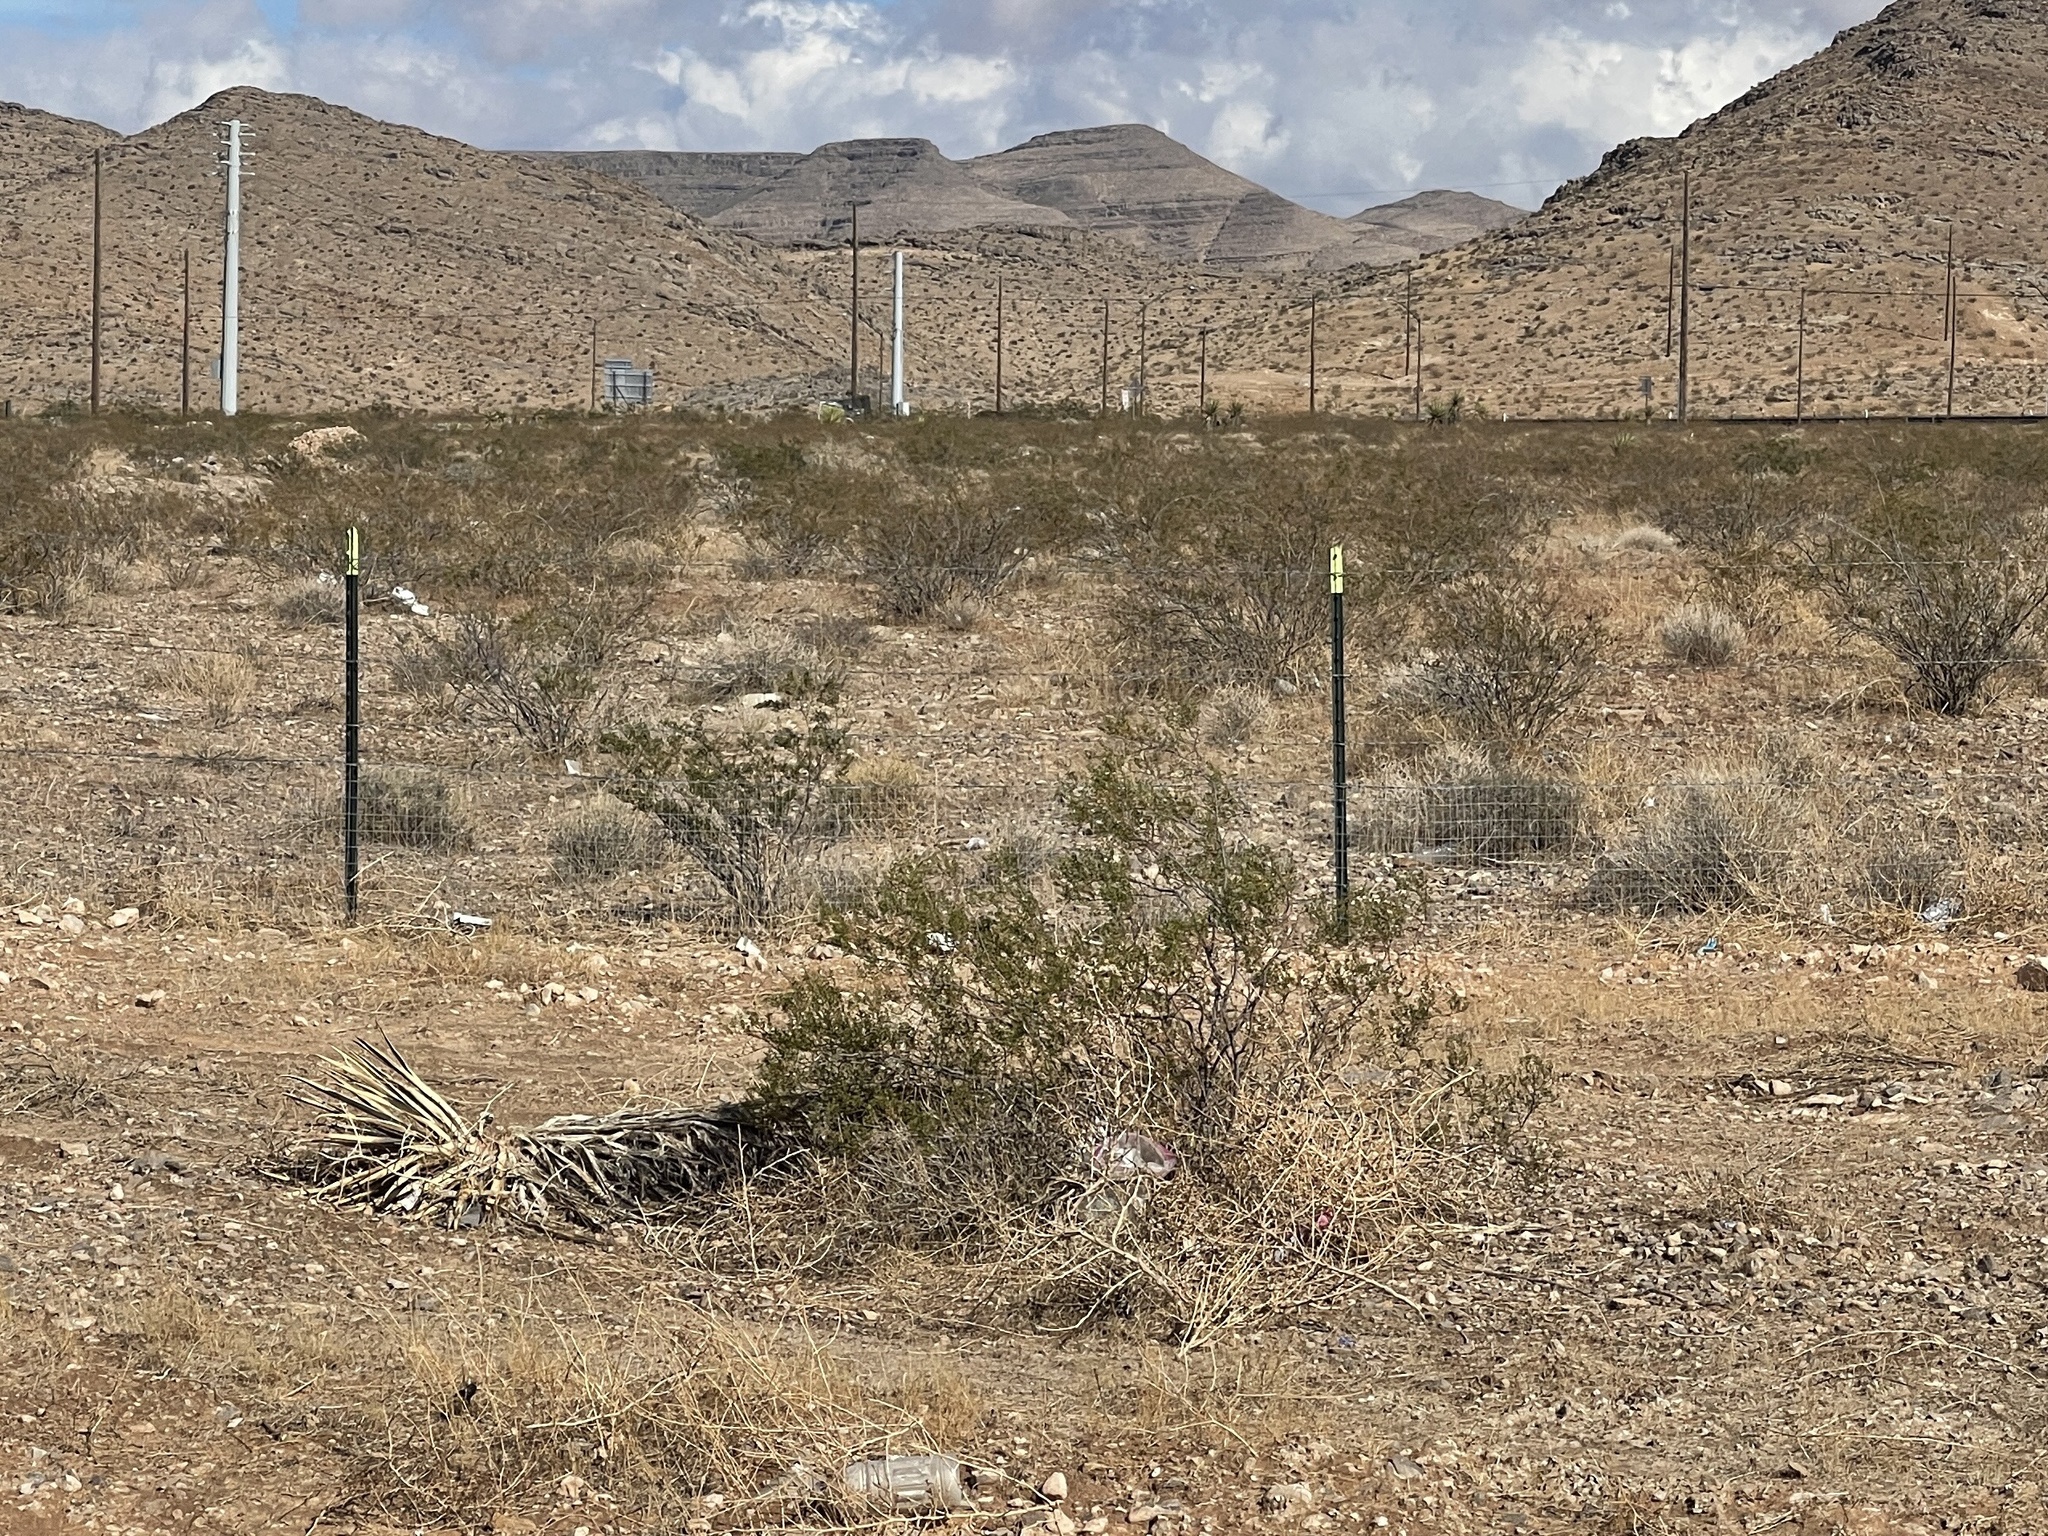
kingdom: Plantae
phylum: Tracheophyta
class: Magnoliopsida
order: Zygophyllales
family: Zygophyllaceae
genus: Larrea
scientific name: Larrea tridentata
